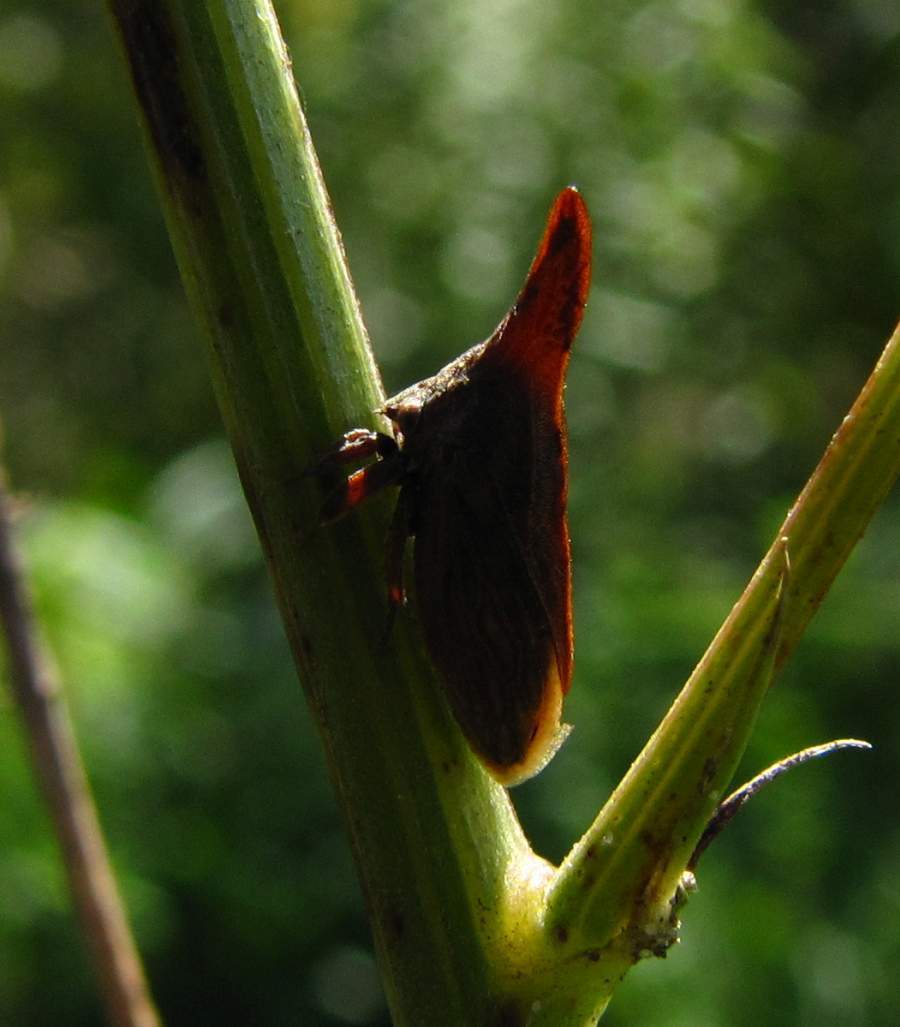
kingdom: Animalia
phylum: Arthropoda
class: Insecta
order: Hemiptera
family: Membracidae
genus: Enchenopa
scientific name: Enchenopa latipes
